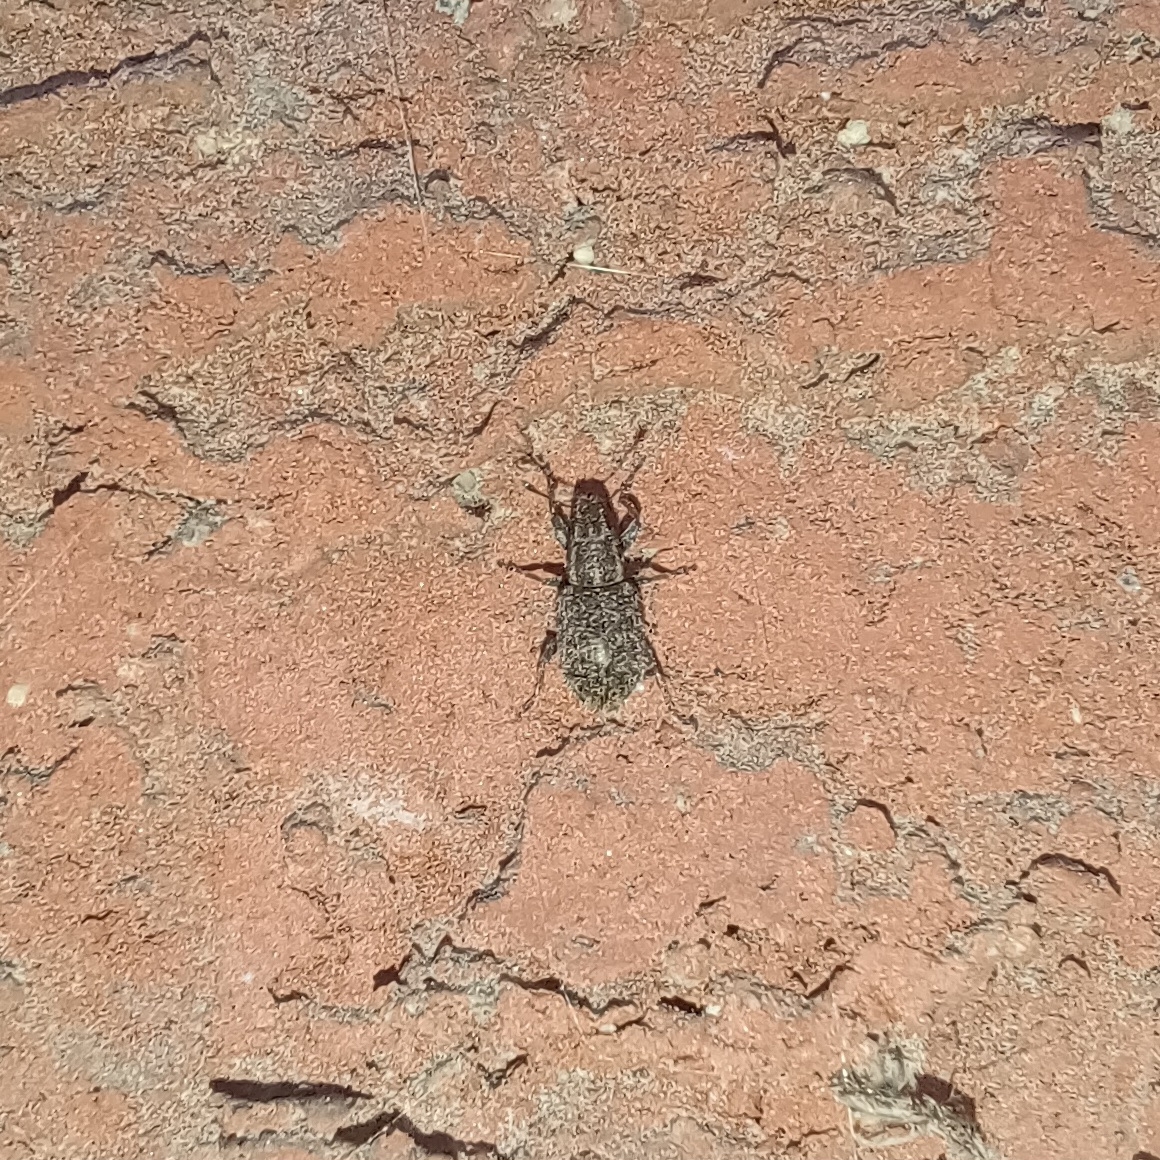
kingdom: Animalia
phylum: Arthropoda
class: Insecta
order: Coleoptera
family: Curculionidae
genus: Sitona
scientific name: Sitona hispidulus
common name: Clover weevil
